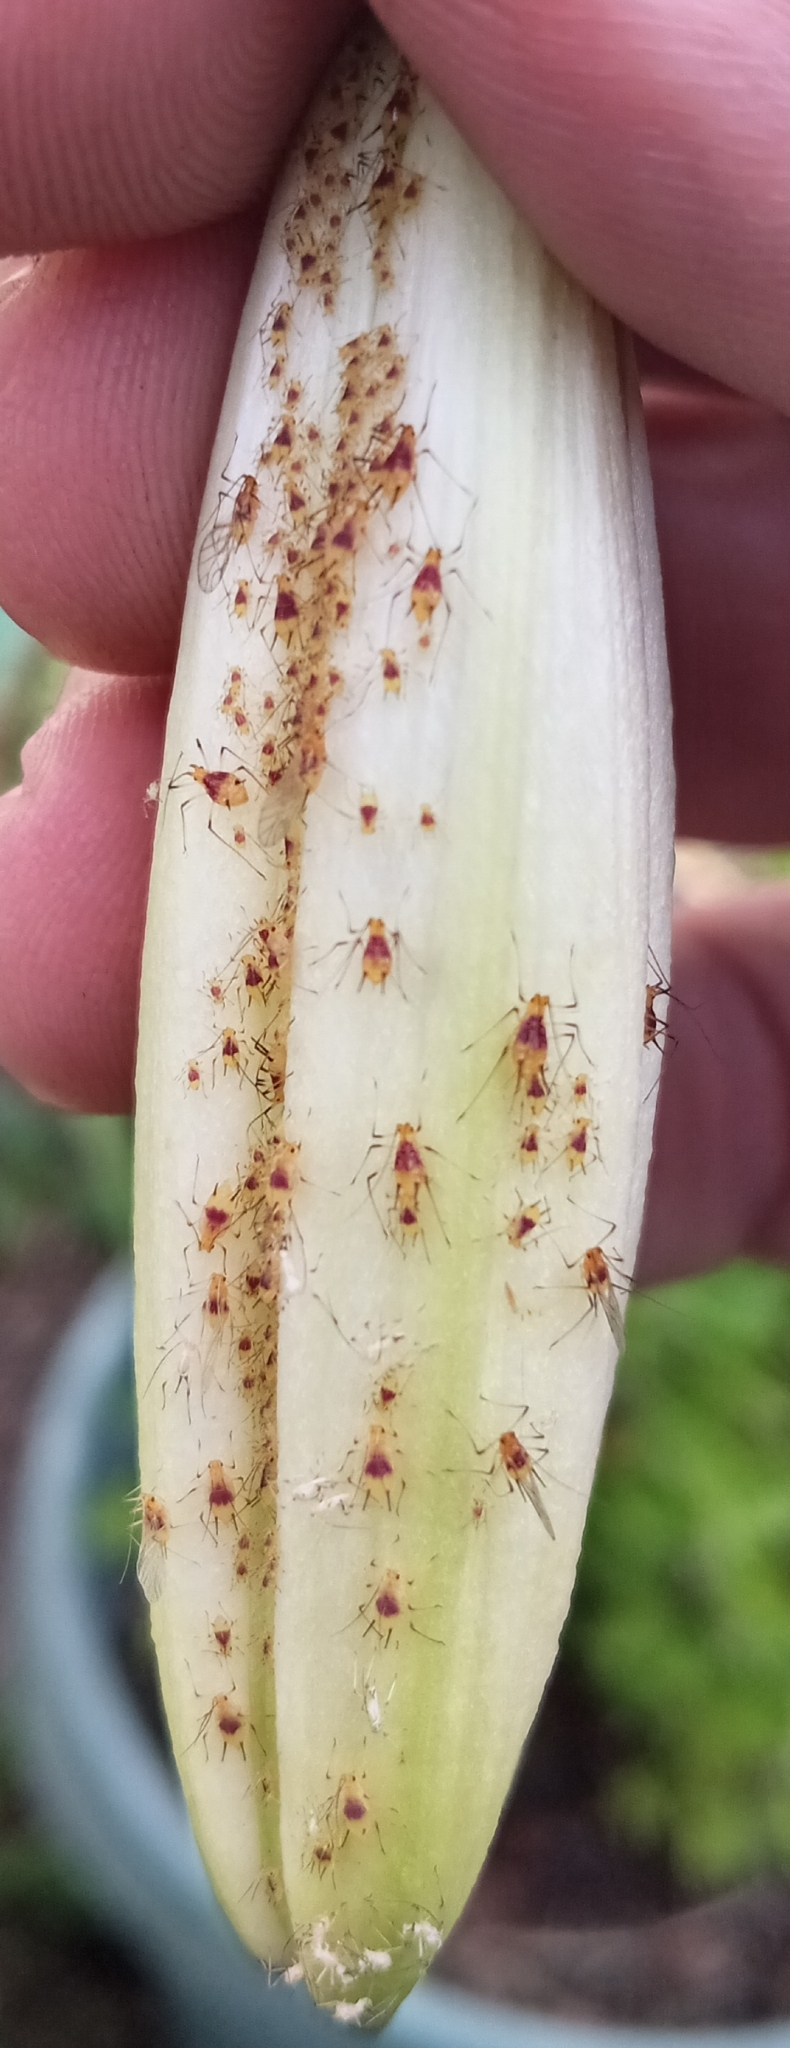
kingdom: Animalia
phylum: Arthropoda
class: Insecta
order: Hemiptera
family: Aphididae
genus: Macrosiphum
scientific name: Macrosiphum lilii
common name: Purplespotted lily aphid
